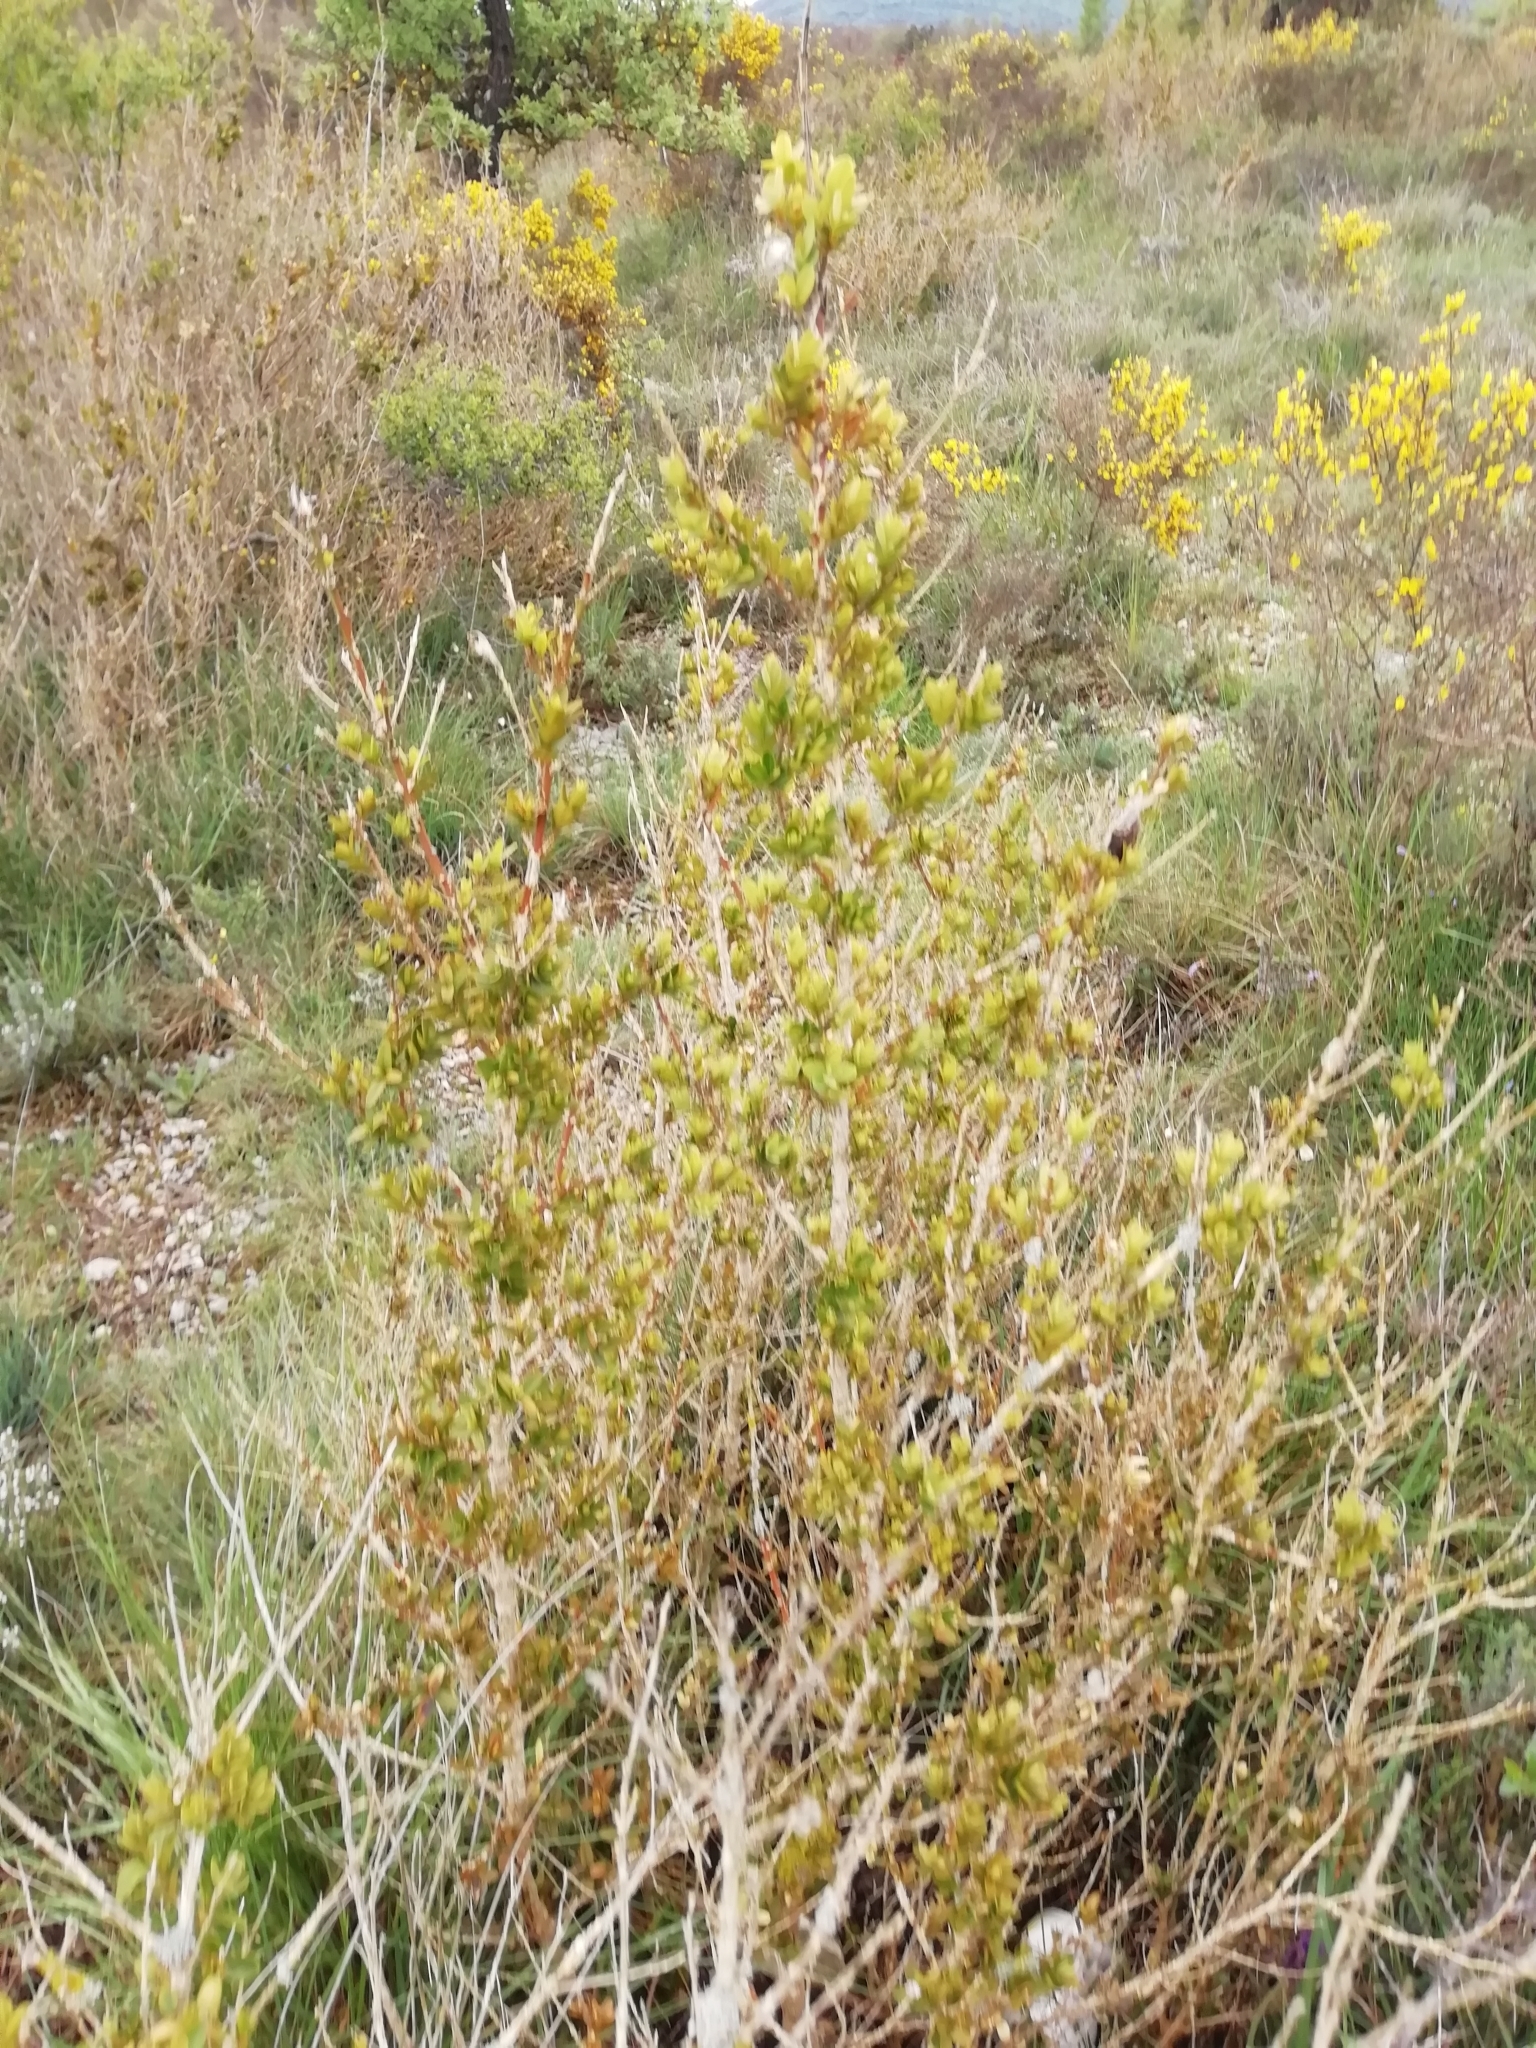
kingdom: Plantae
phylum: Tracheophyta
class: Magnoliopsida
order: Buxales
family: Buxaceae
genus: Buxus
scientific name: Buxus sempervirens
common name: Box
